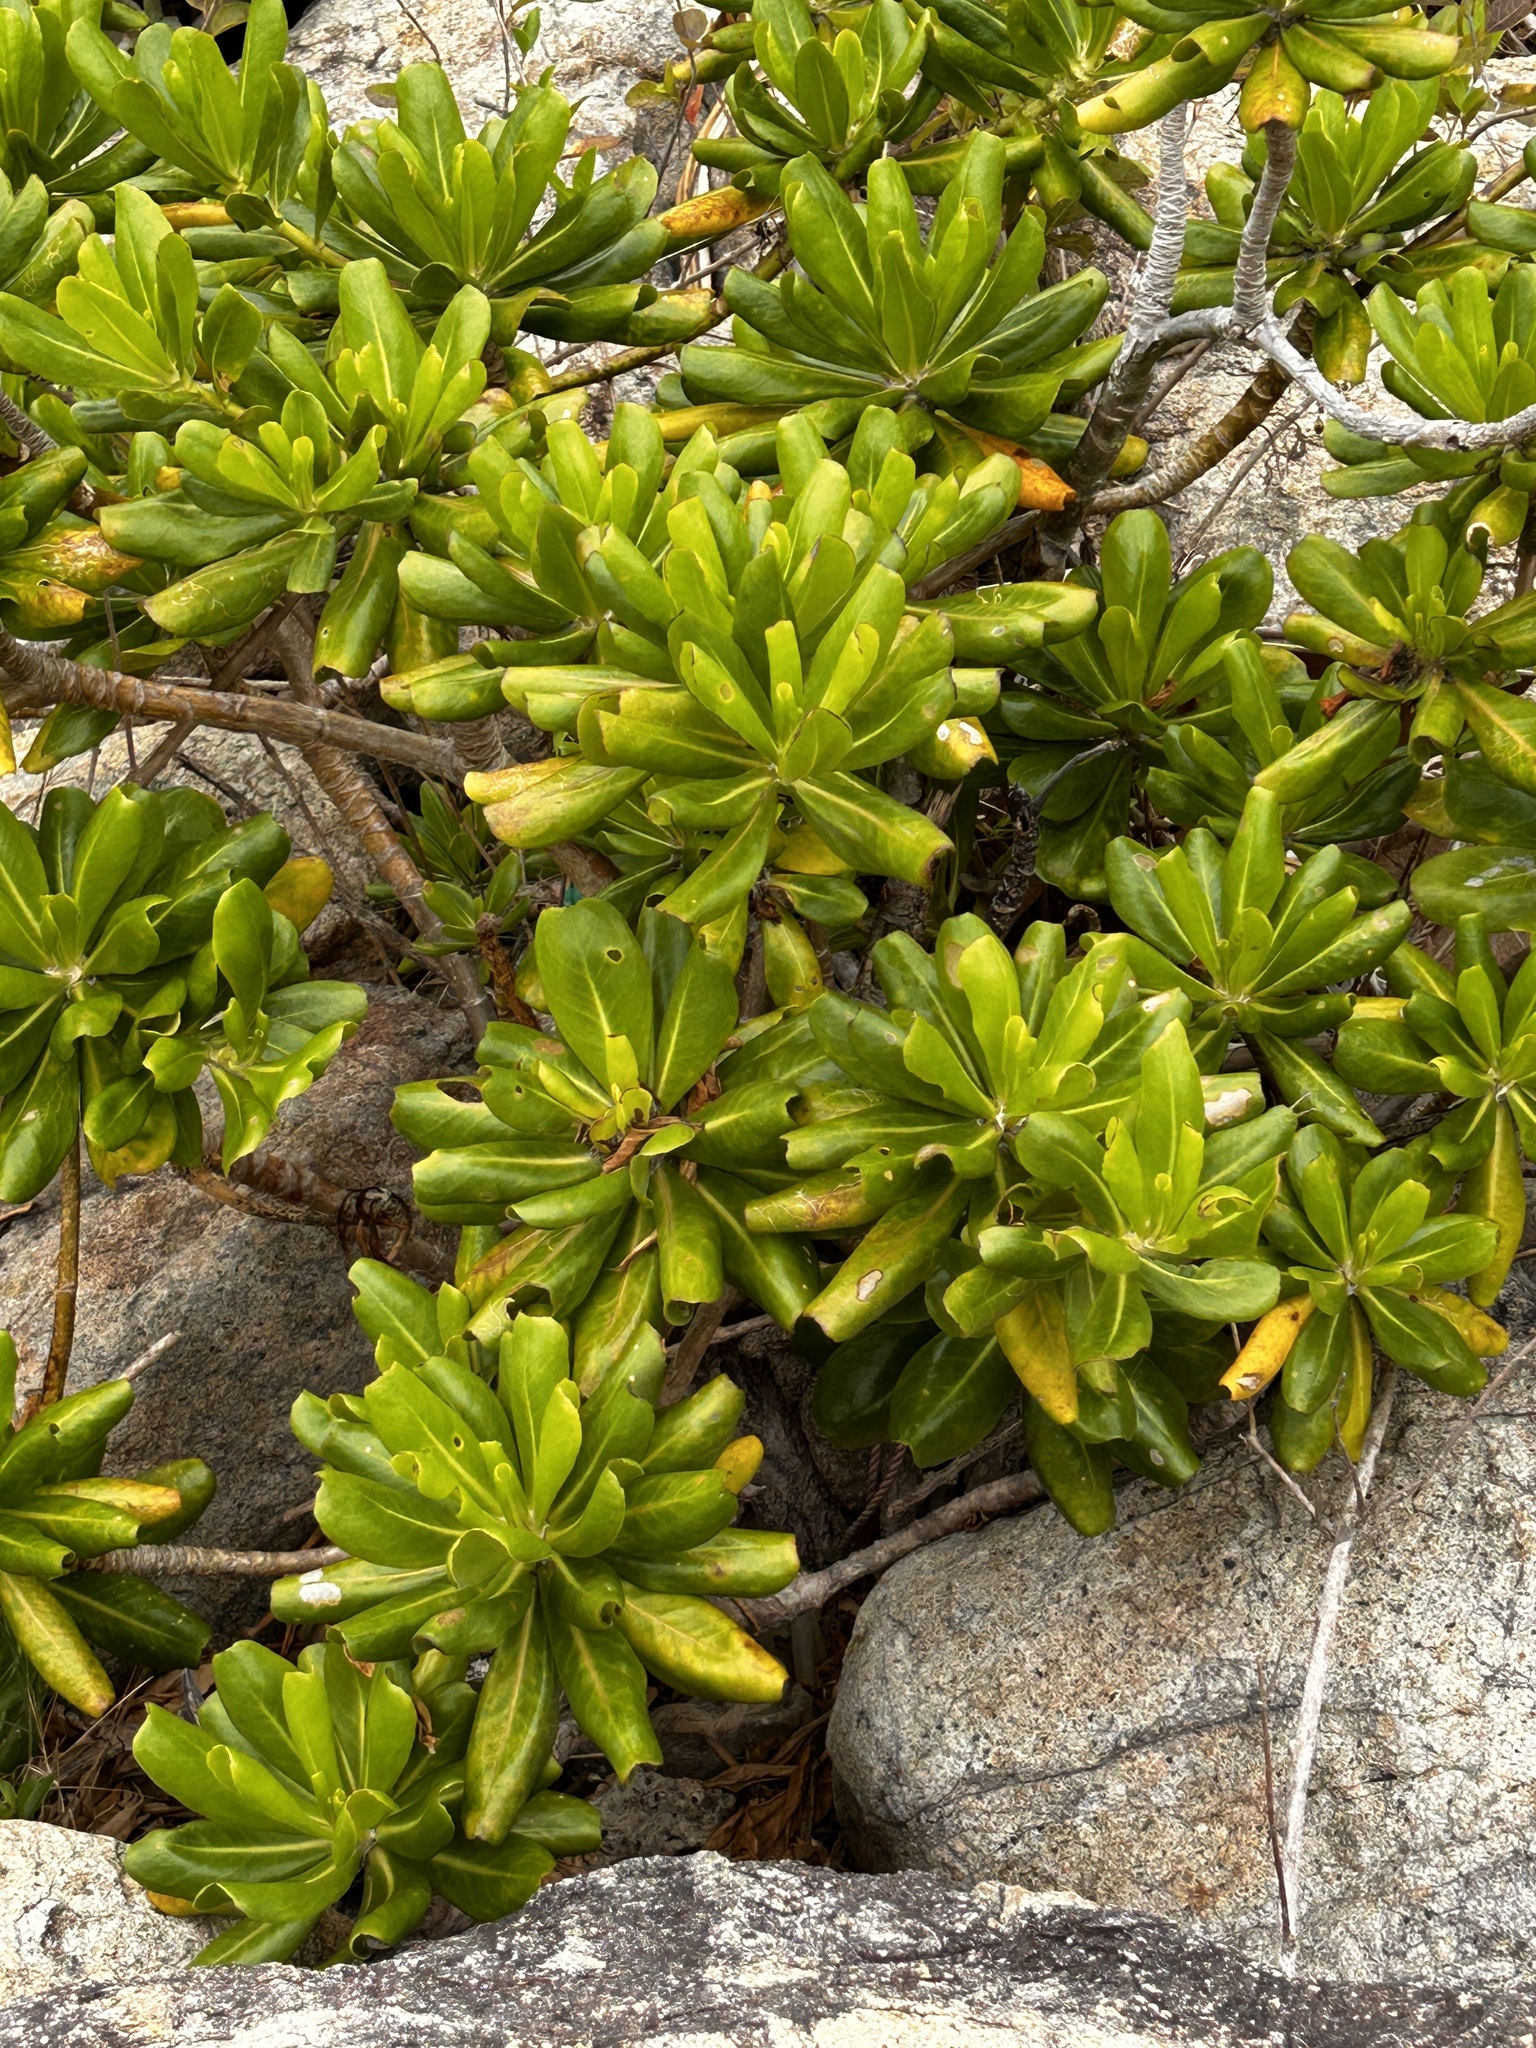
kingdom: Plantae
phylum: Tracheophyta
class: Magnoliopsida
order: Asterales
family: Goodeniaceae
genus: Scaevola
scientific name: Scaevola taccada
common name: Sea lettucetree
